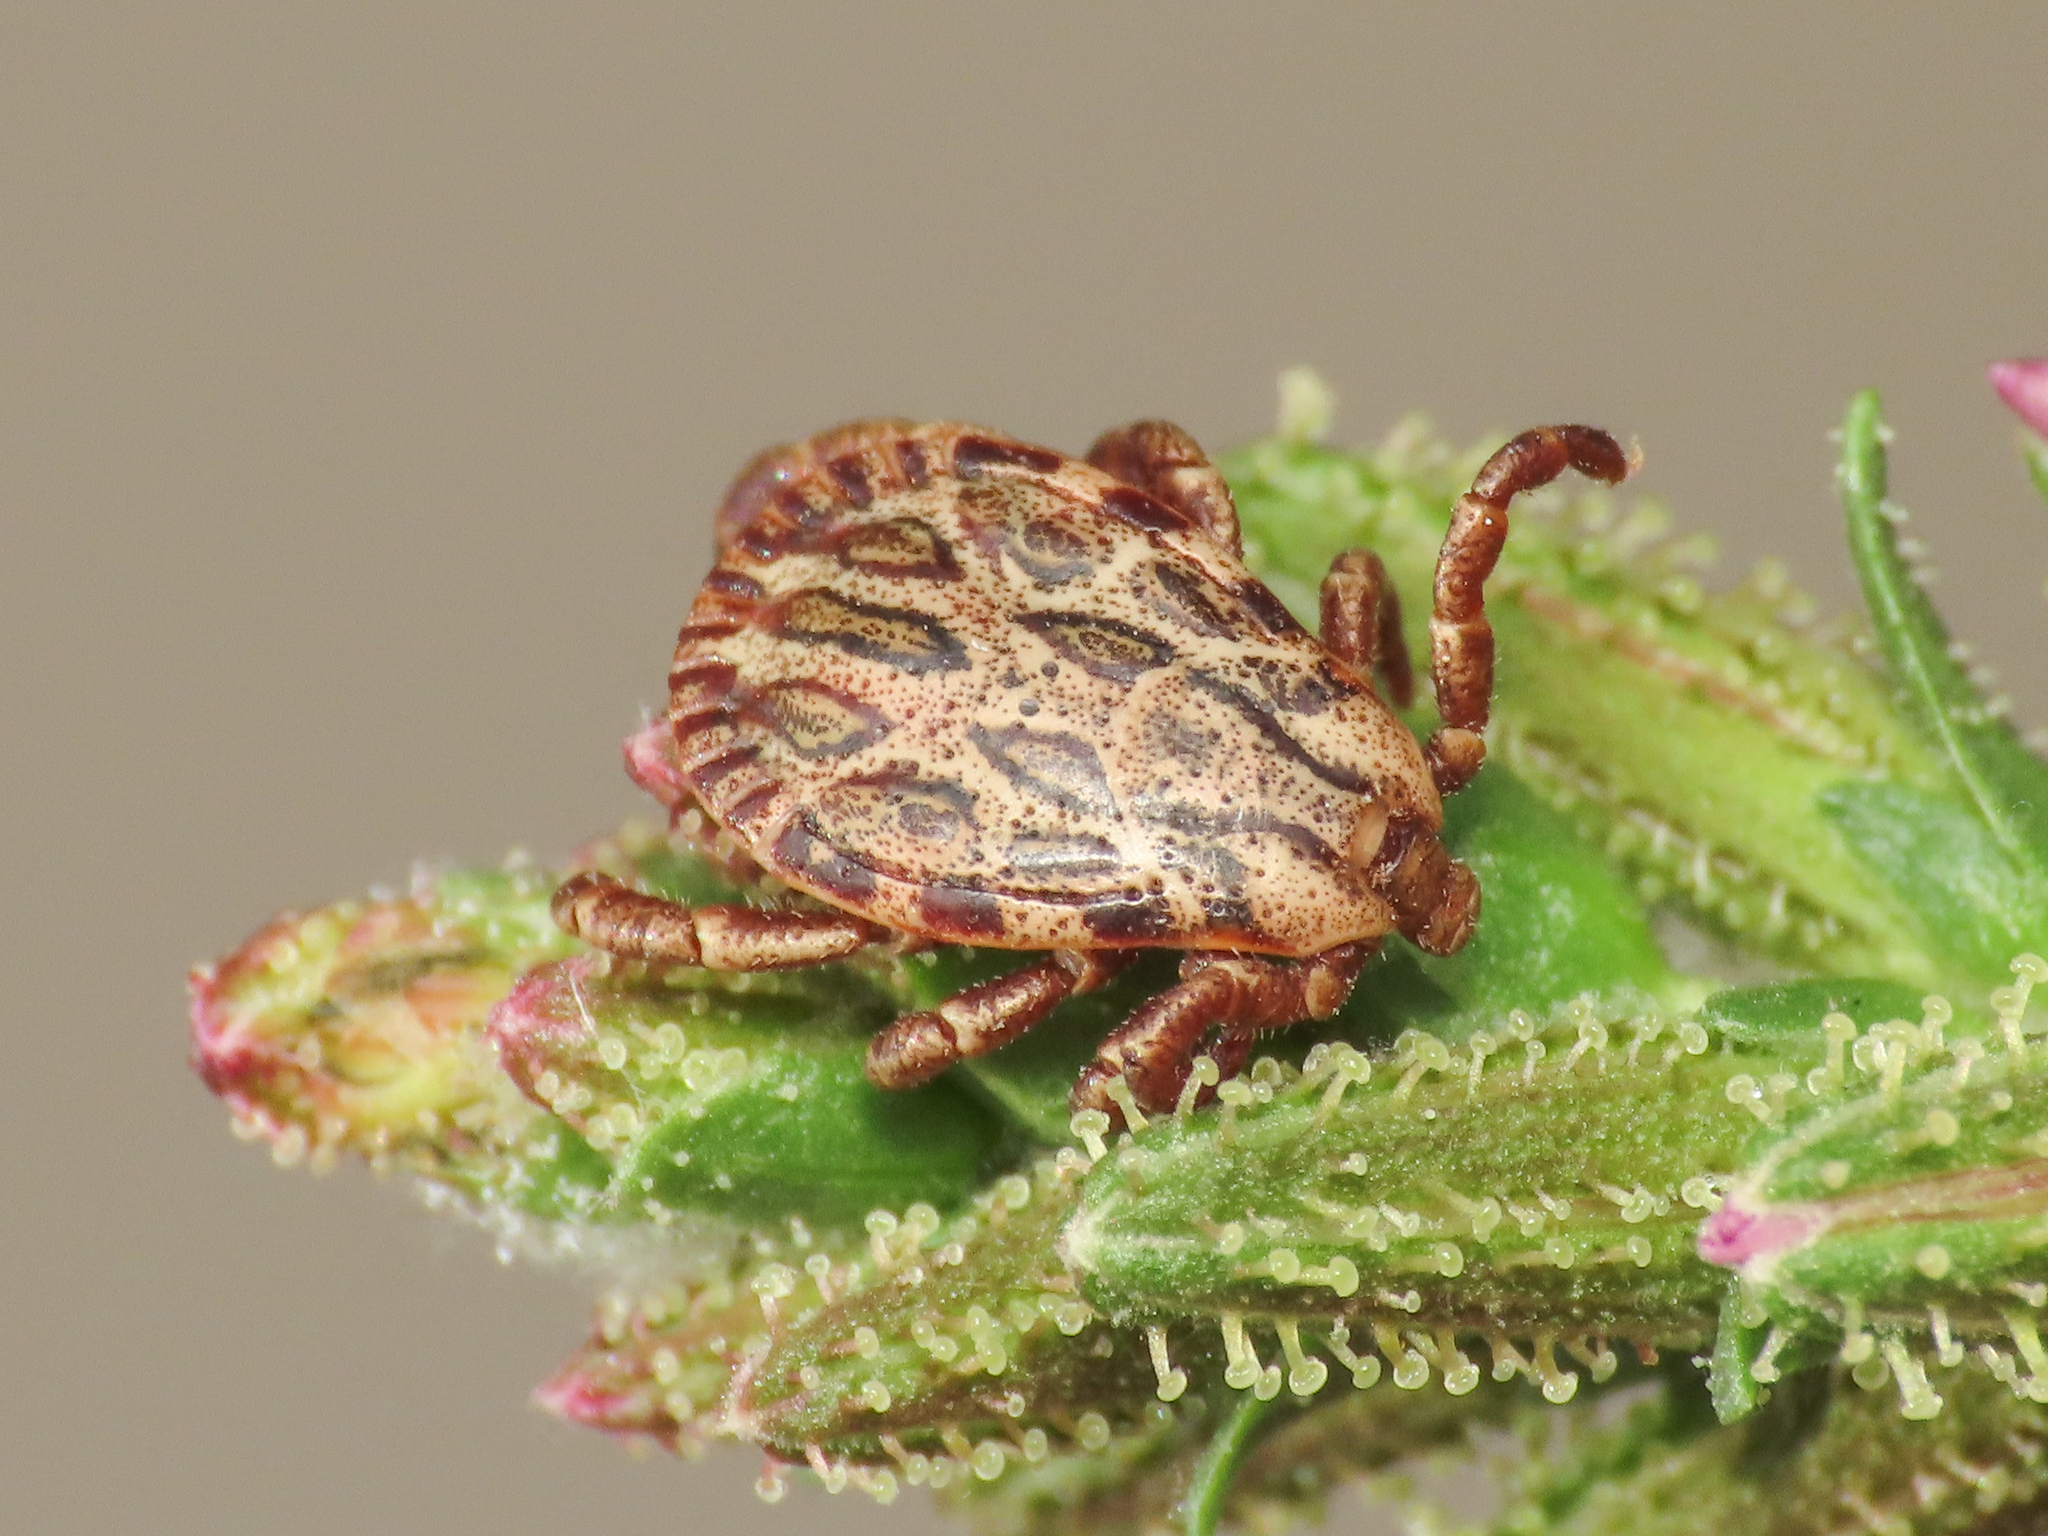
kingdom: Animalia
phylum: Arthropoda
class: Arachnida
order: Ixodida
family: Ixodidae
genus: Dermacentor
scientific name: Dermacentor marginatus
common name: Ornate sheep tick
